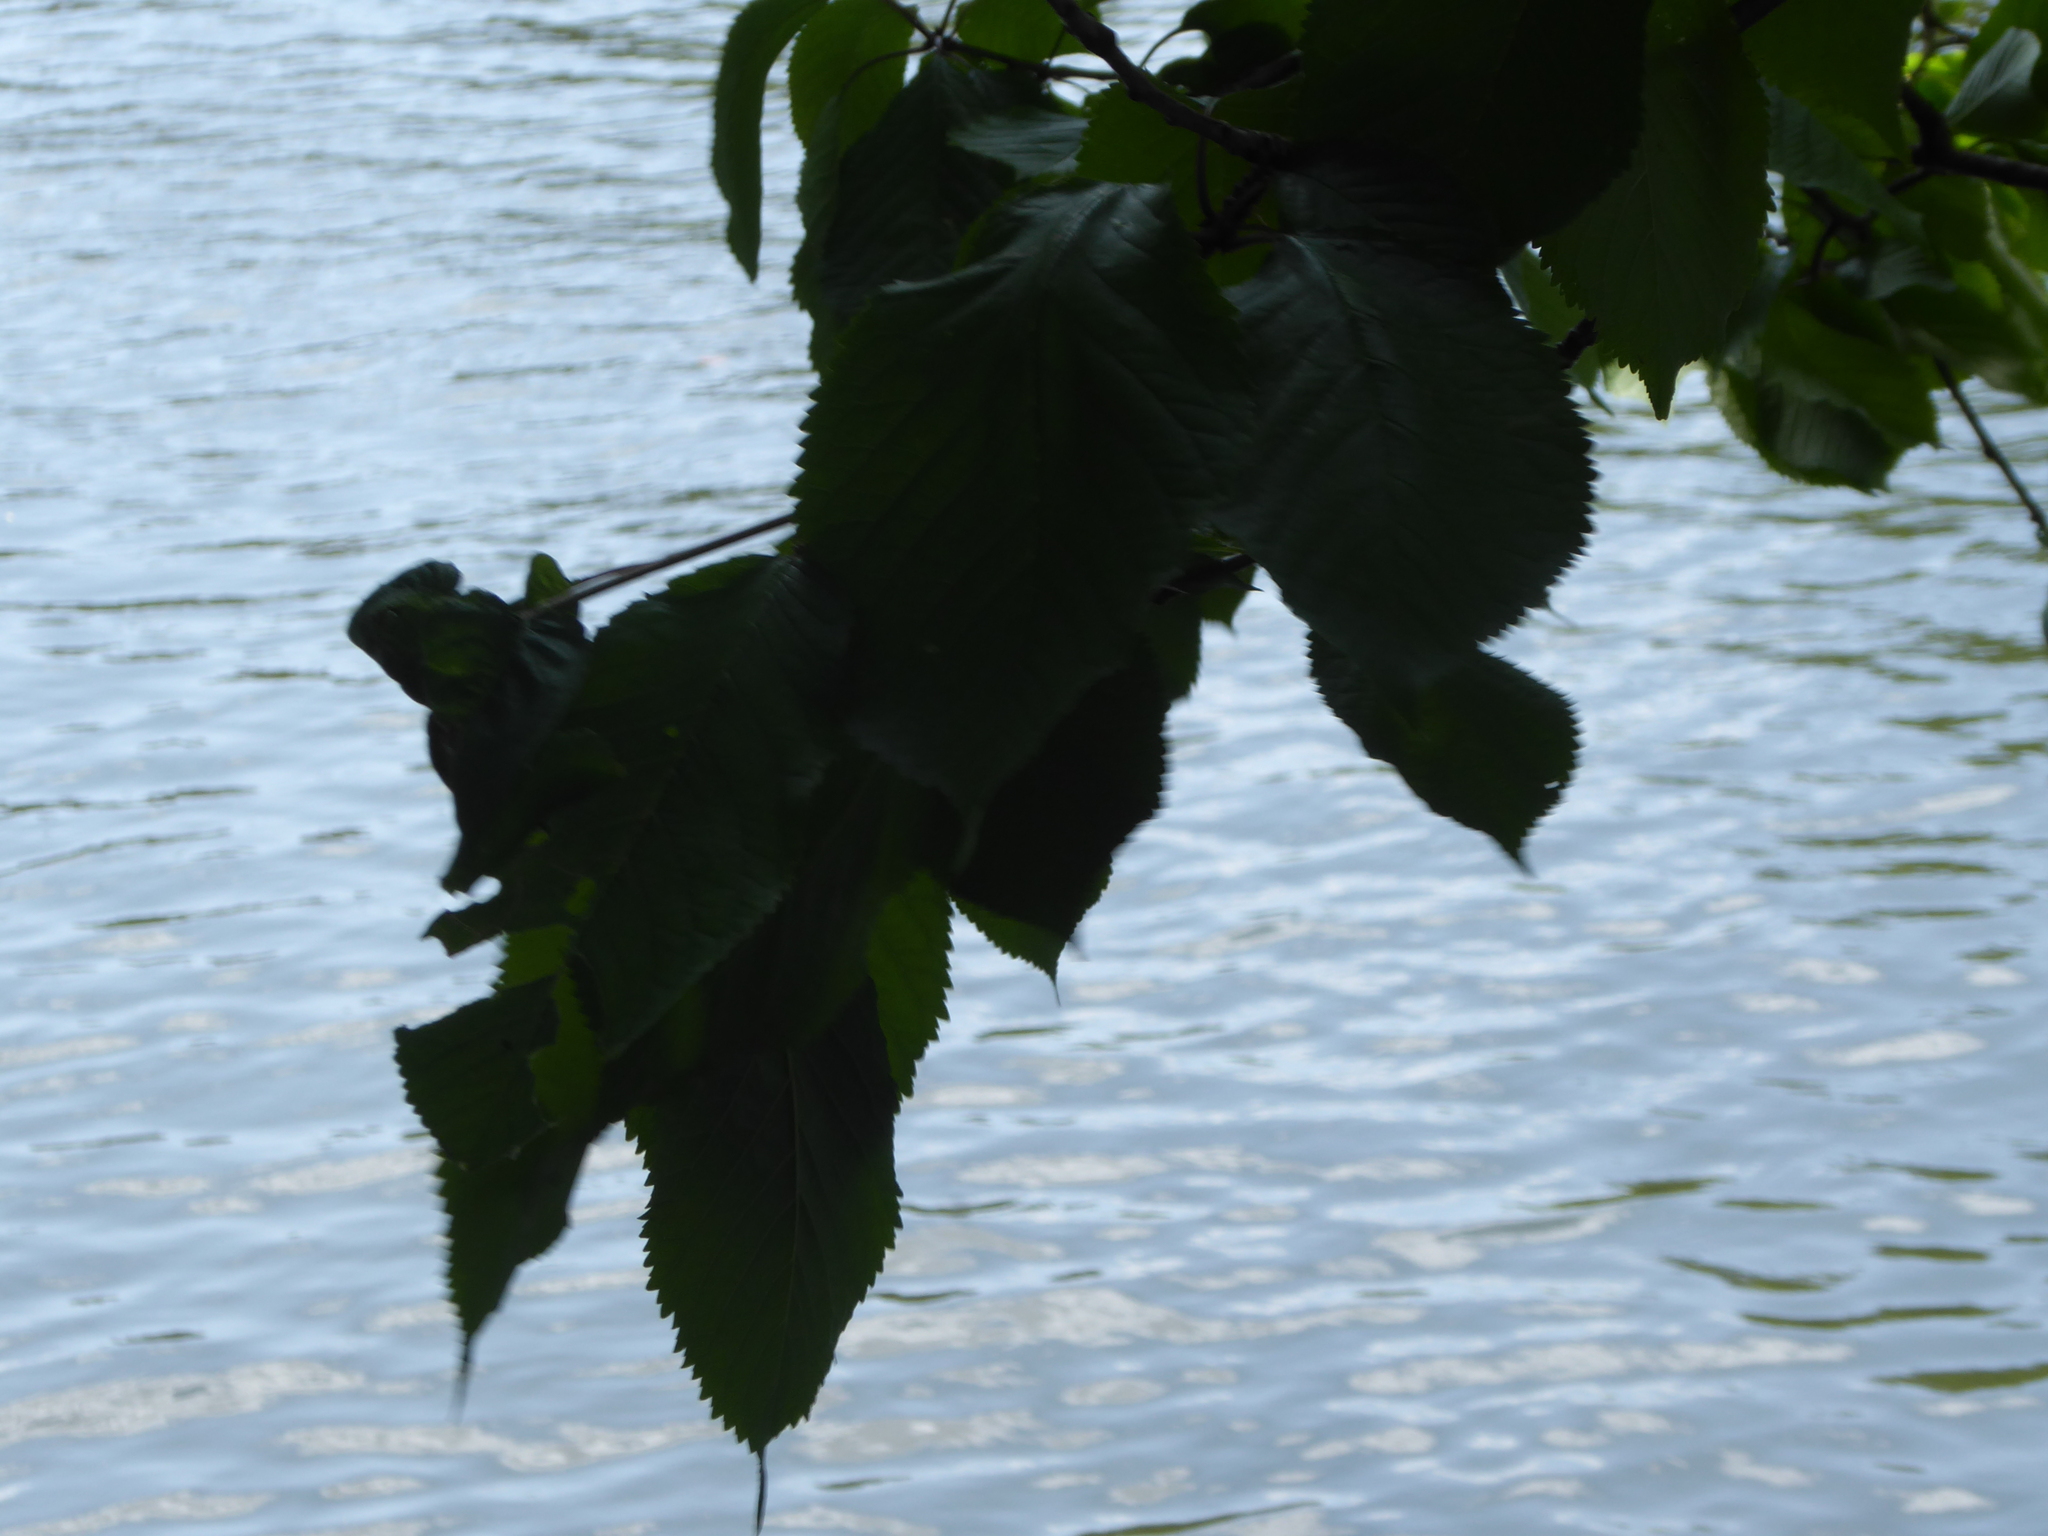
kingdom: Plantae
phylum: Tracheophyta
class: Magnoliopsida
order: Rosales
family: Rosaceae
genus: Prunus
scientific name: Prunus avium
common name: Sweet cherry
